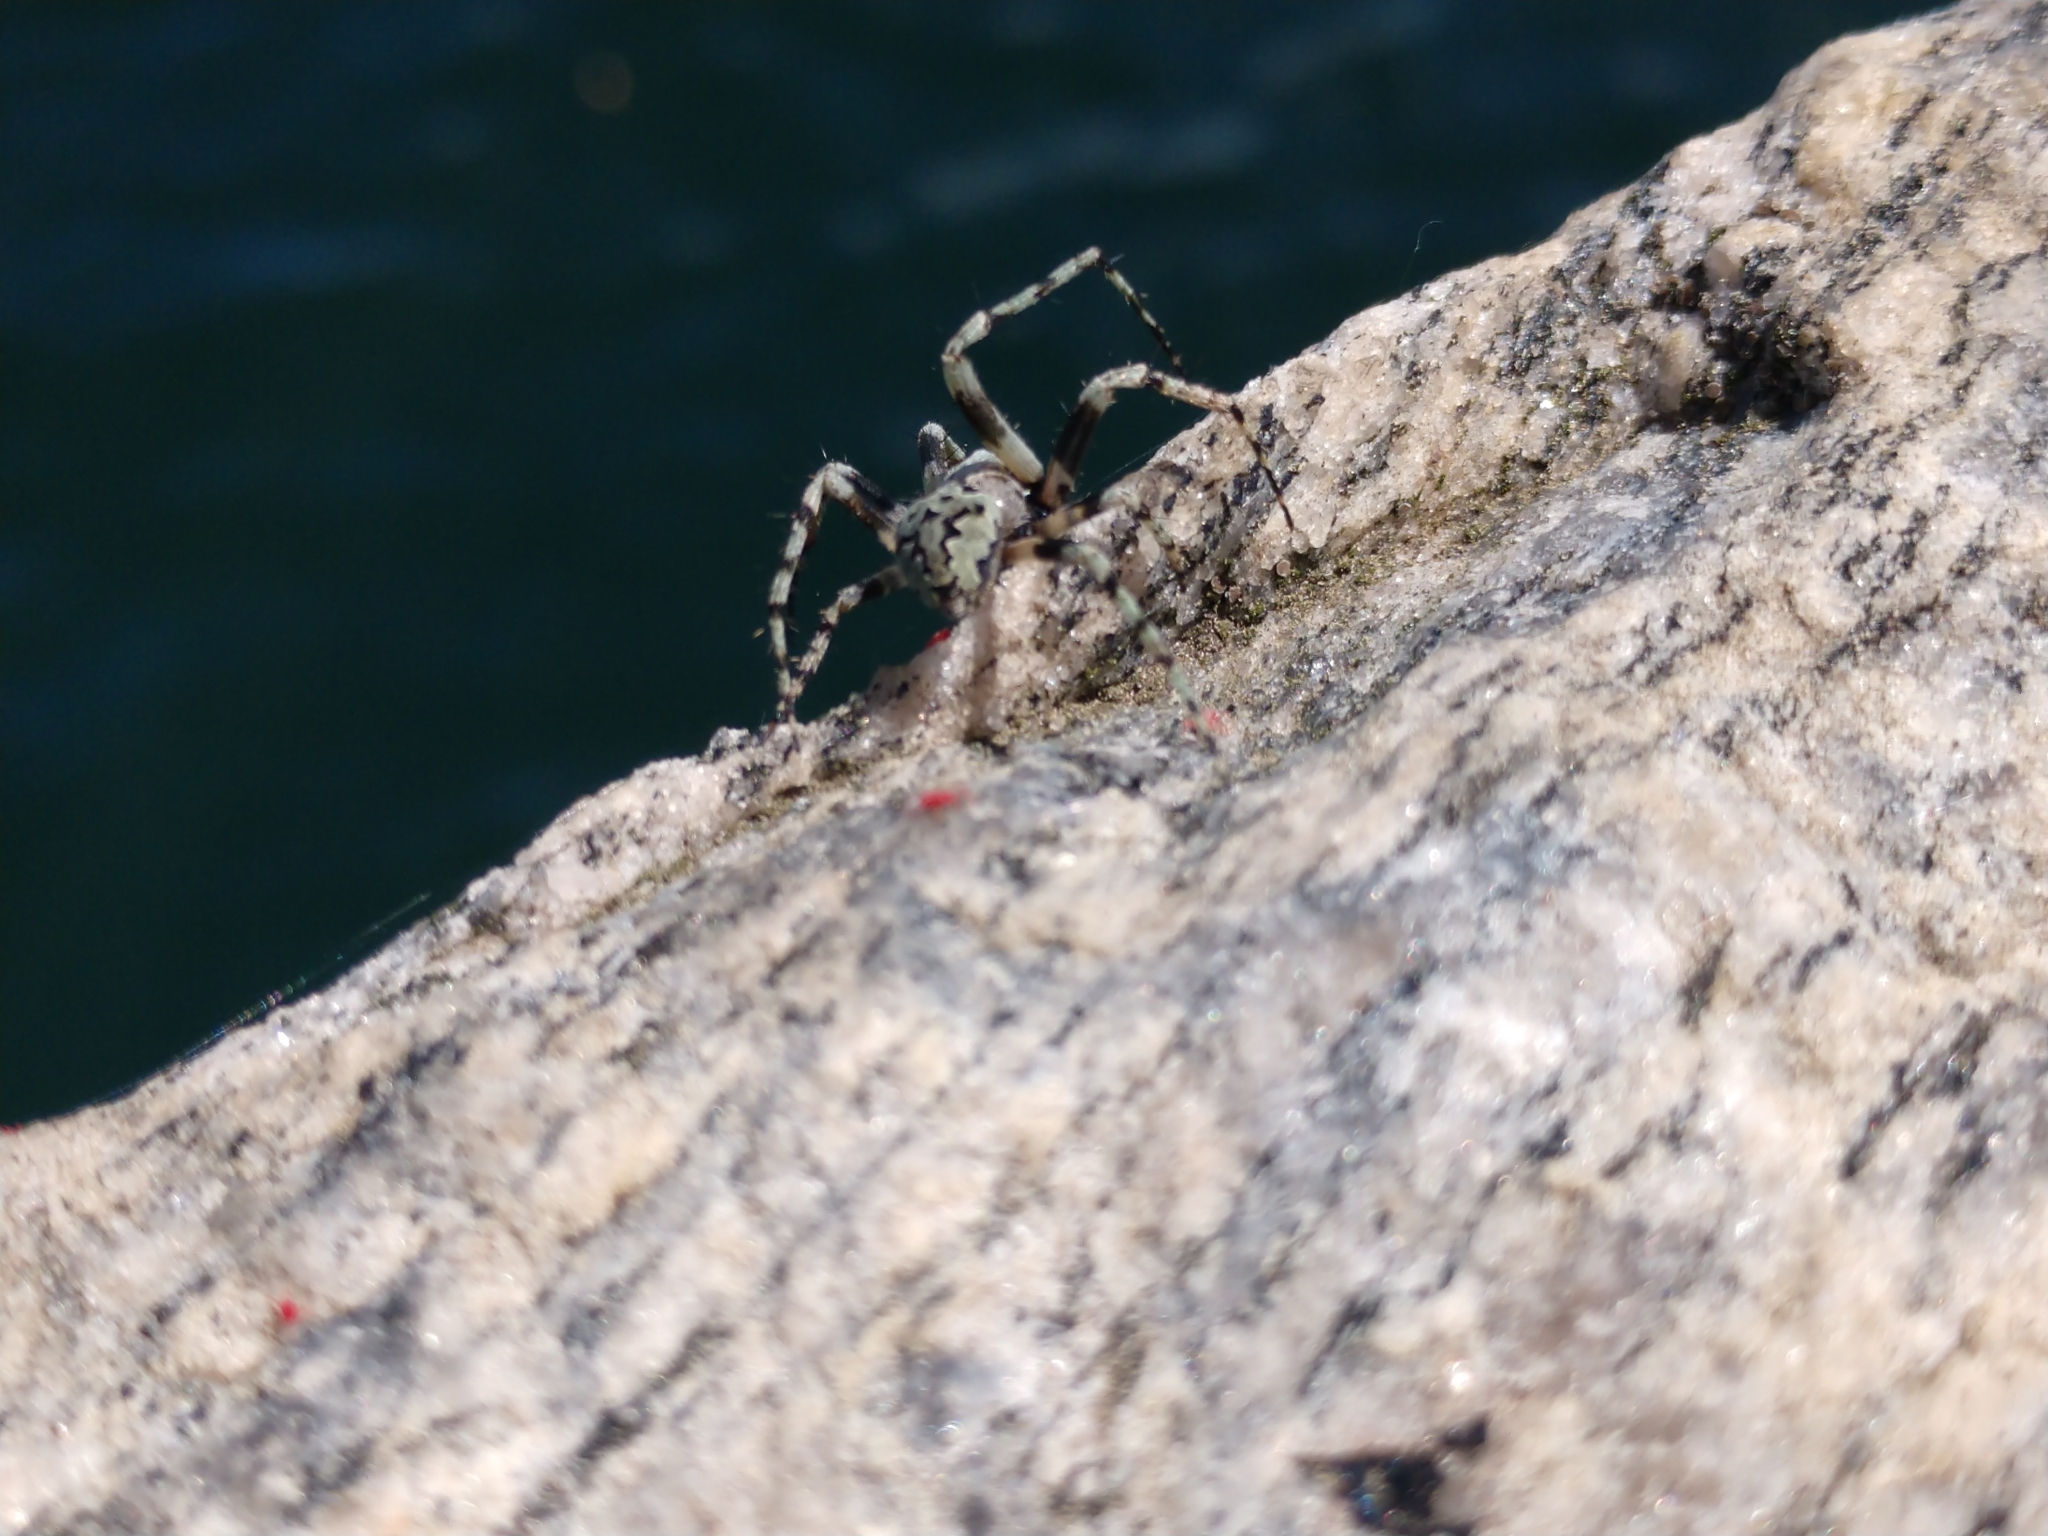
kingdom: Animalia
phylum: Arthropoda
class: Arachnida
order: Araneae
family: Araneidae
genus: Eustala
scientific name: Eustala anastera
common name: Orb weavers
